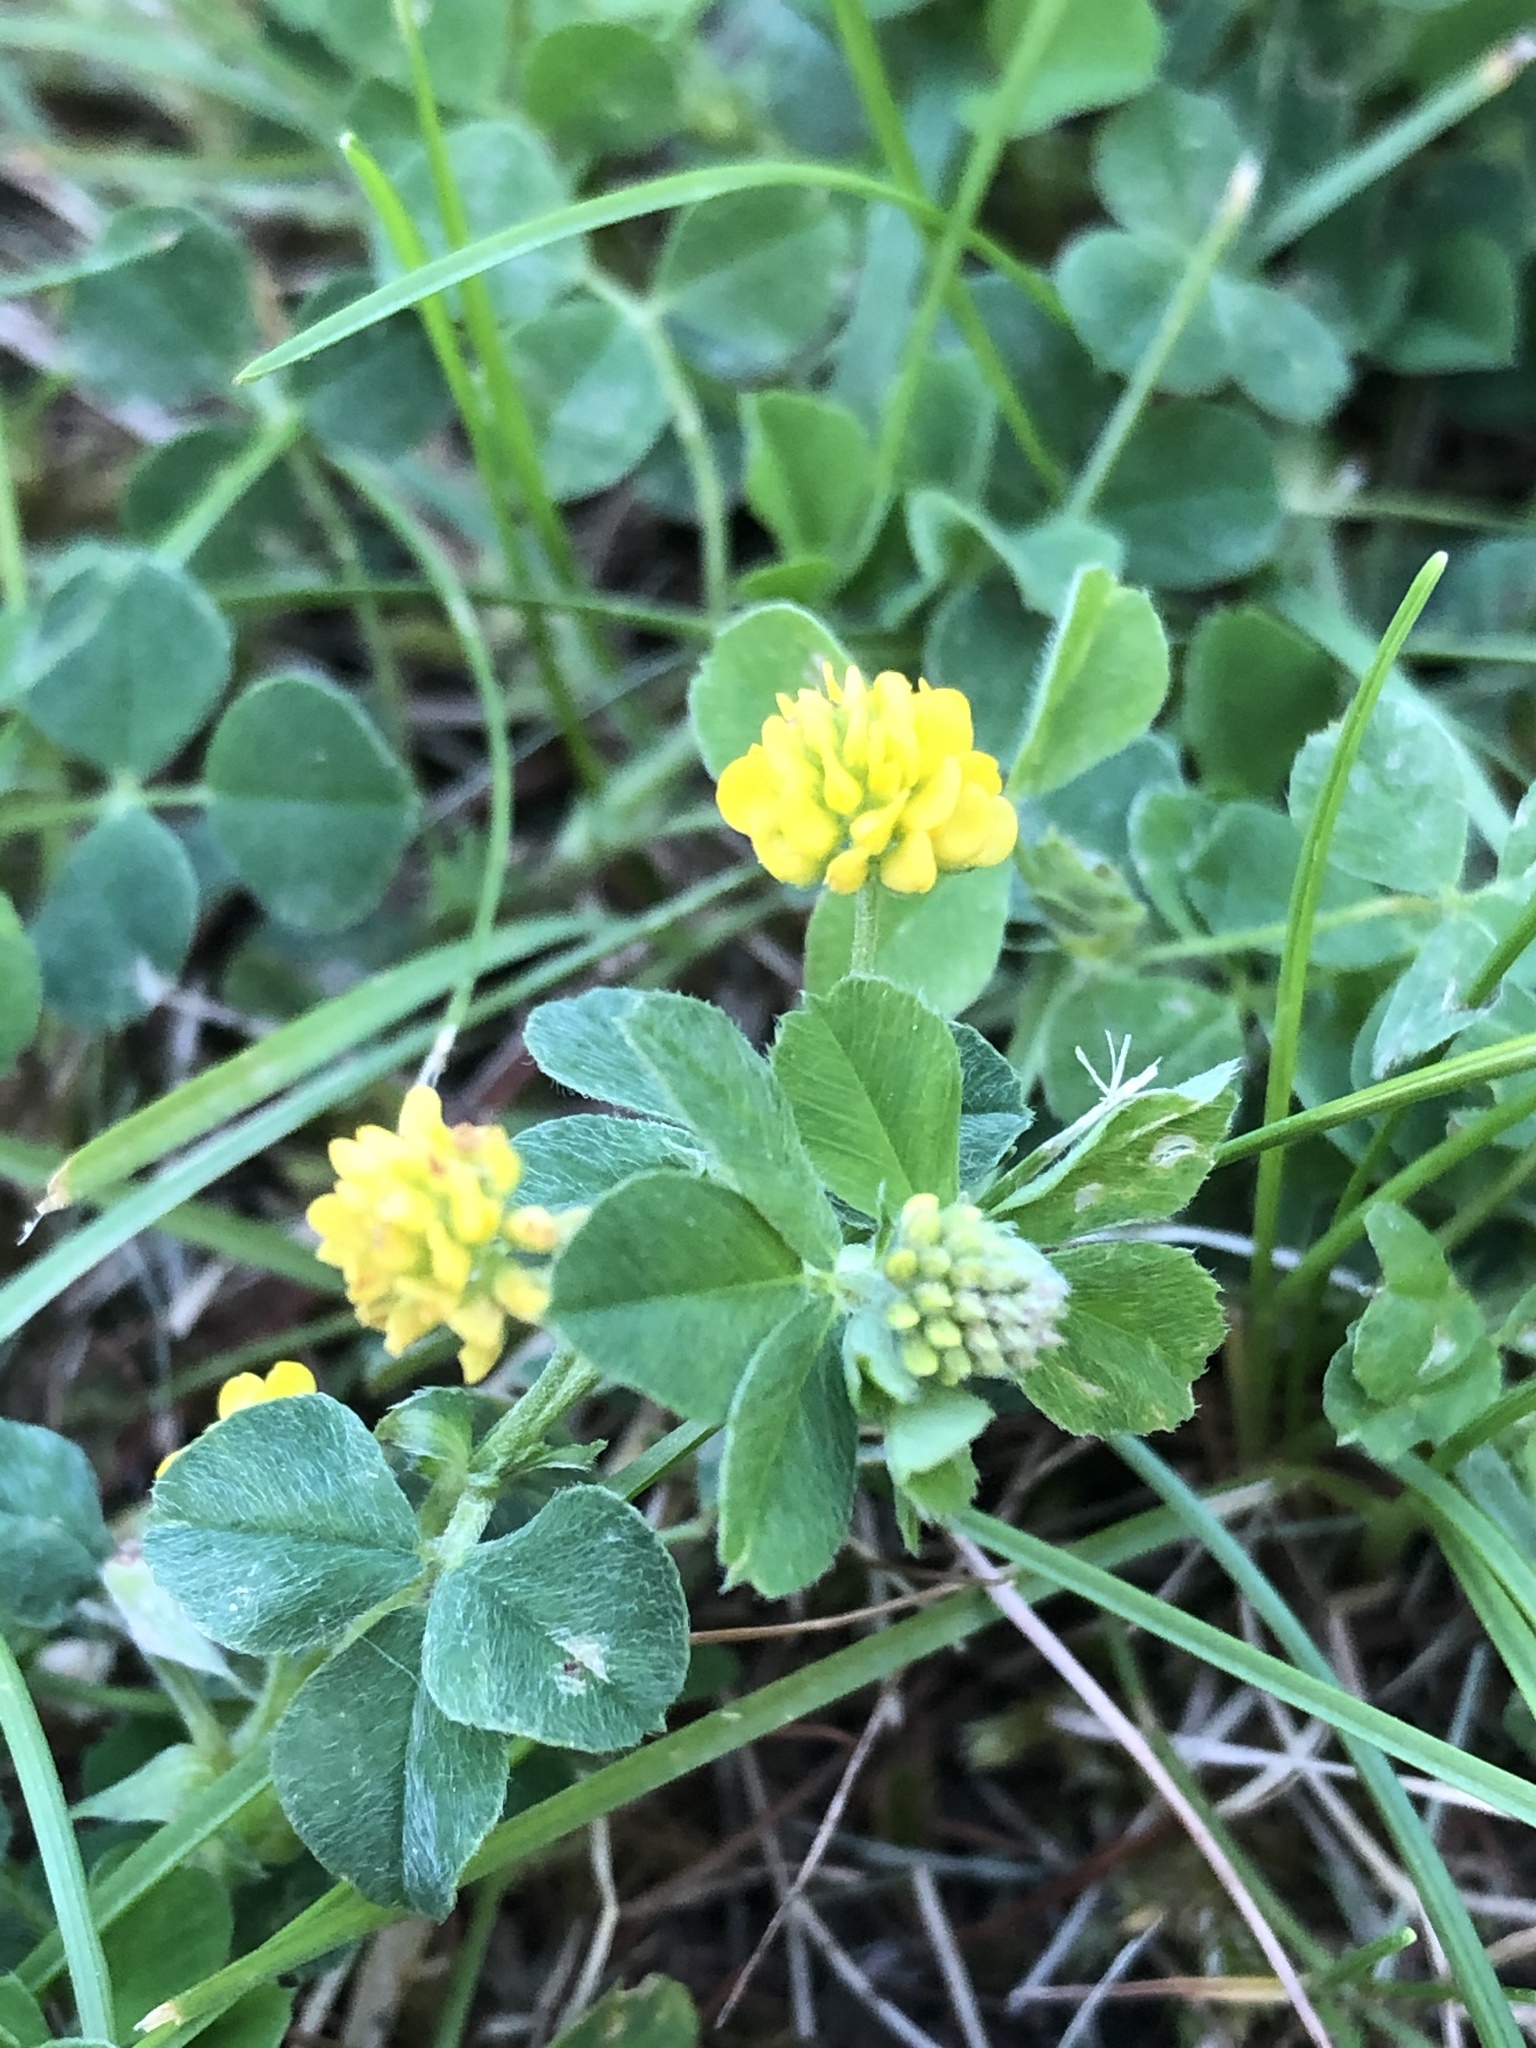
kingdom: Plantae
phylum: Tracheophyta
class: Magnoliopsida
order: Fabales
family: Fabaceae
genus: Medicago
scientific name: Medicago lupulina
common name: Black medick
